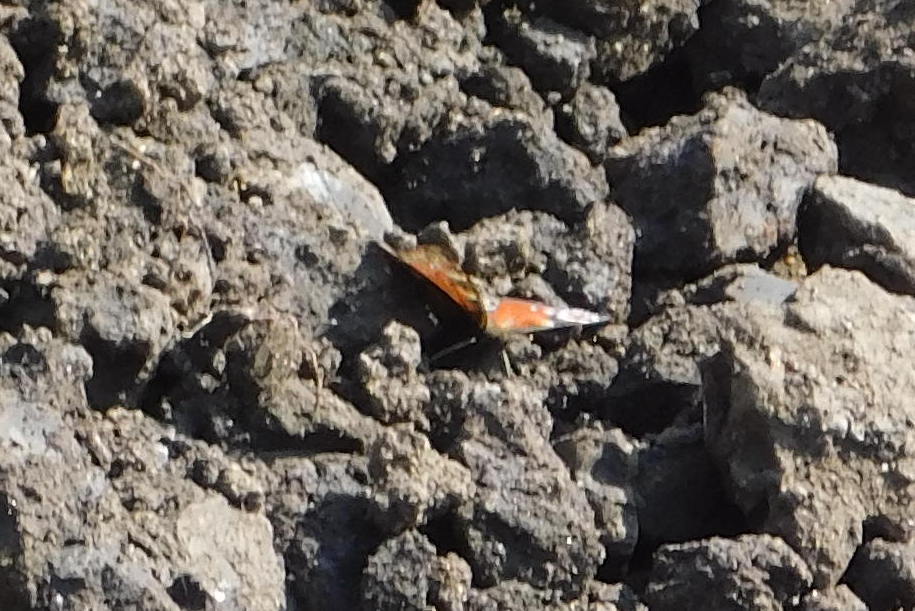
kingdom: Animalia
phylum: Arthropoda
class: Insecta
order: Lepidoptera
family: Nymphalidae
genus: Aglais
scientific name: Aglais io
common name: Peacock
